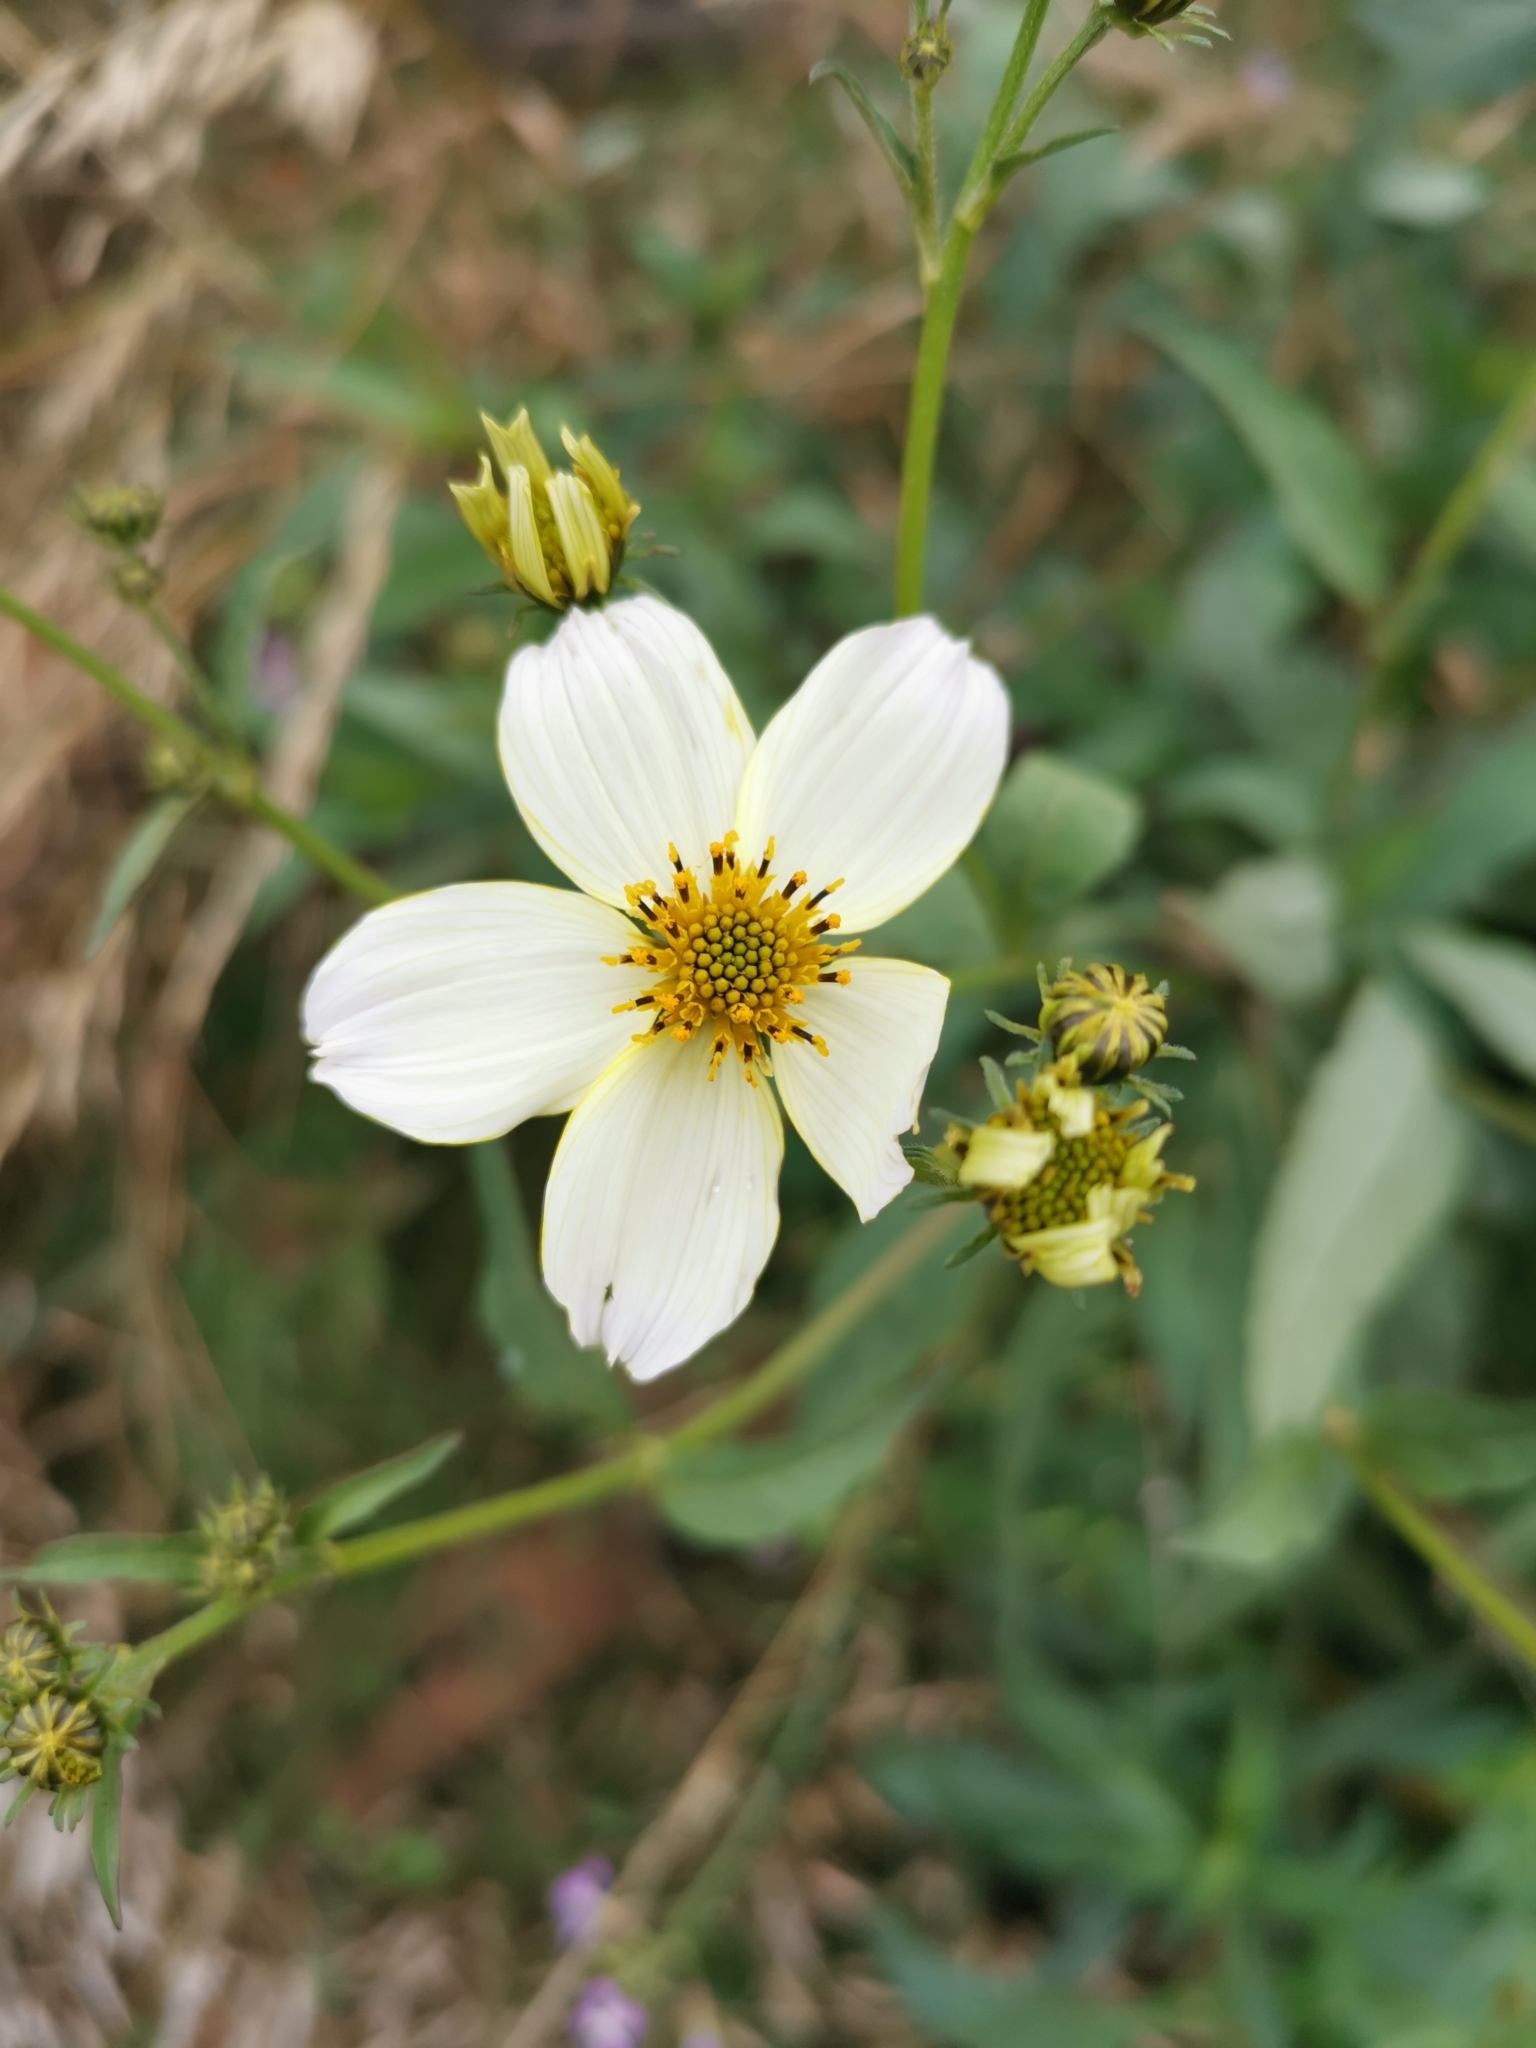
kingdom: Plantae
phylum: Tracheophyta
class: Magnoliopsida
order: Asterales
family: Asteraceae
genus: Bidens
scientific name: Bidens aurea
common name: Arizona beggar-ticks
